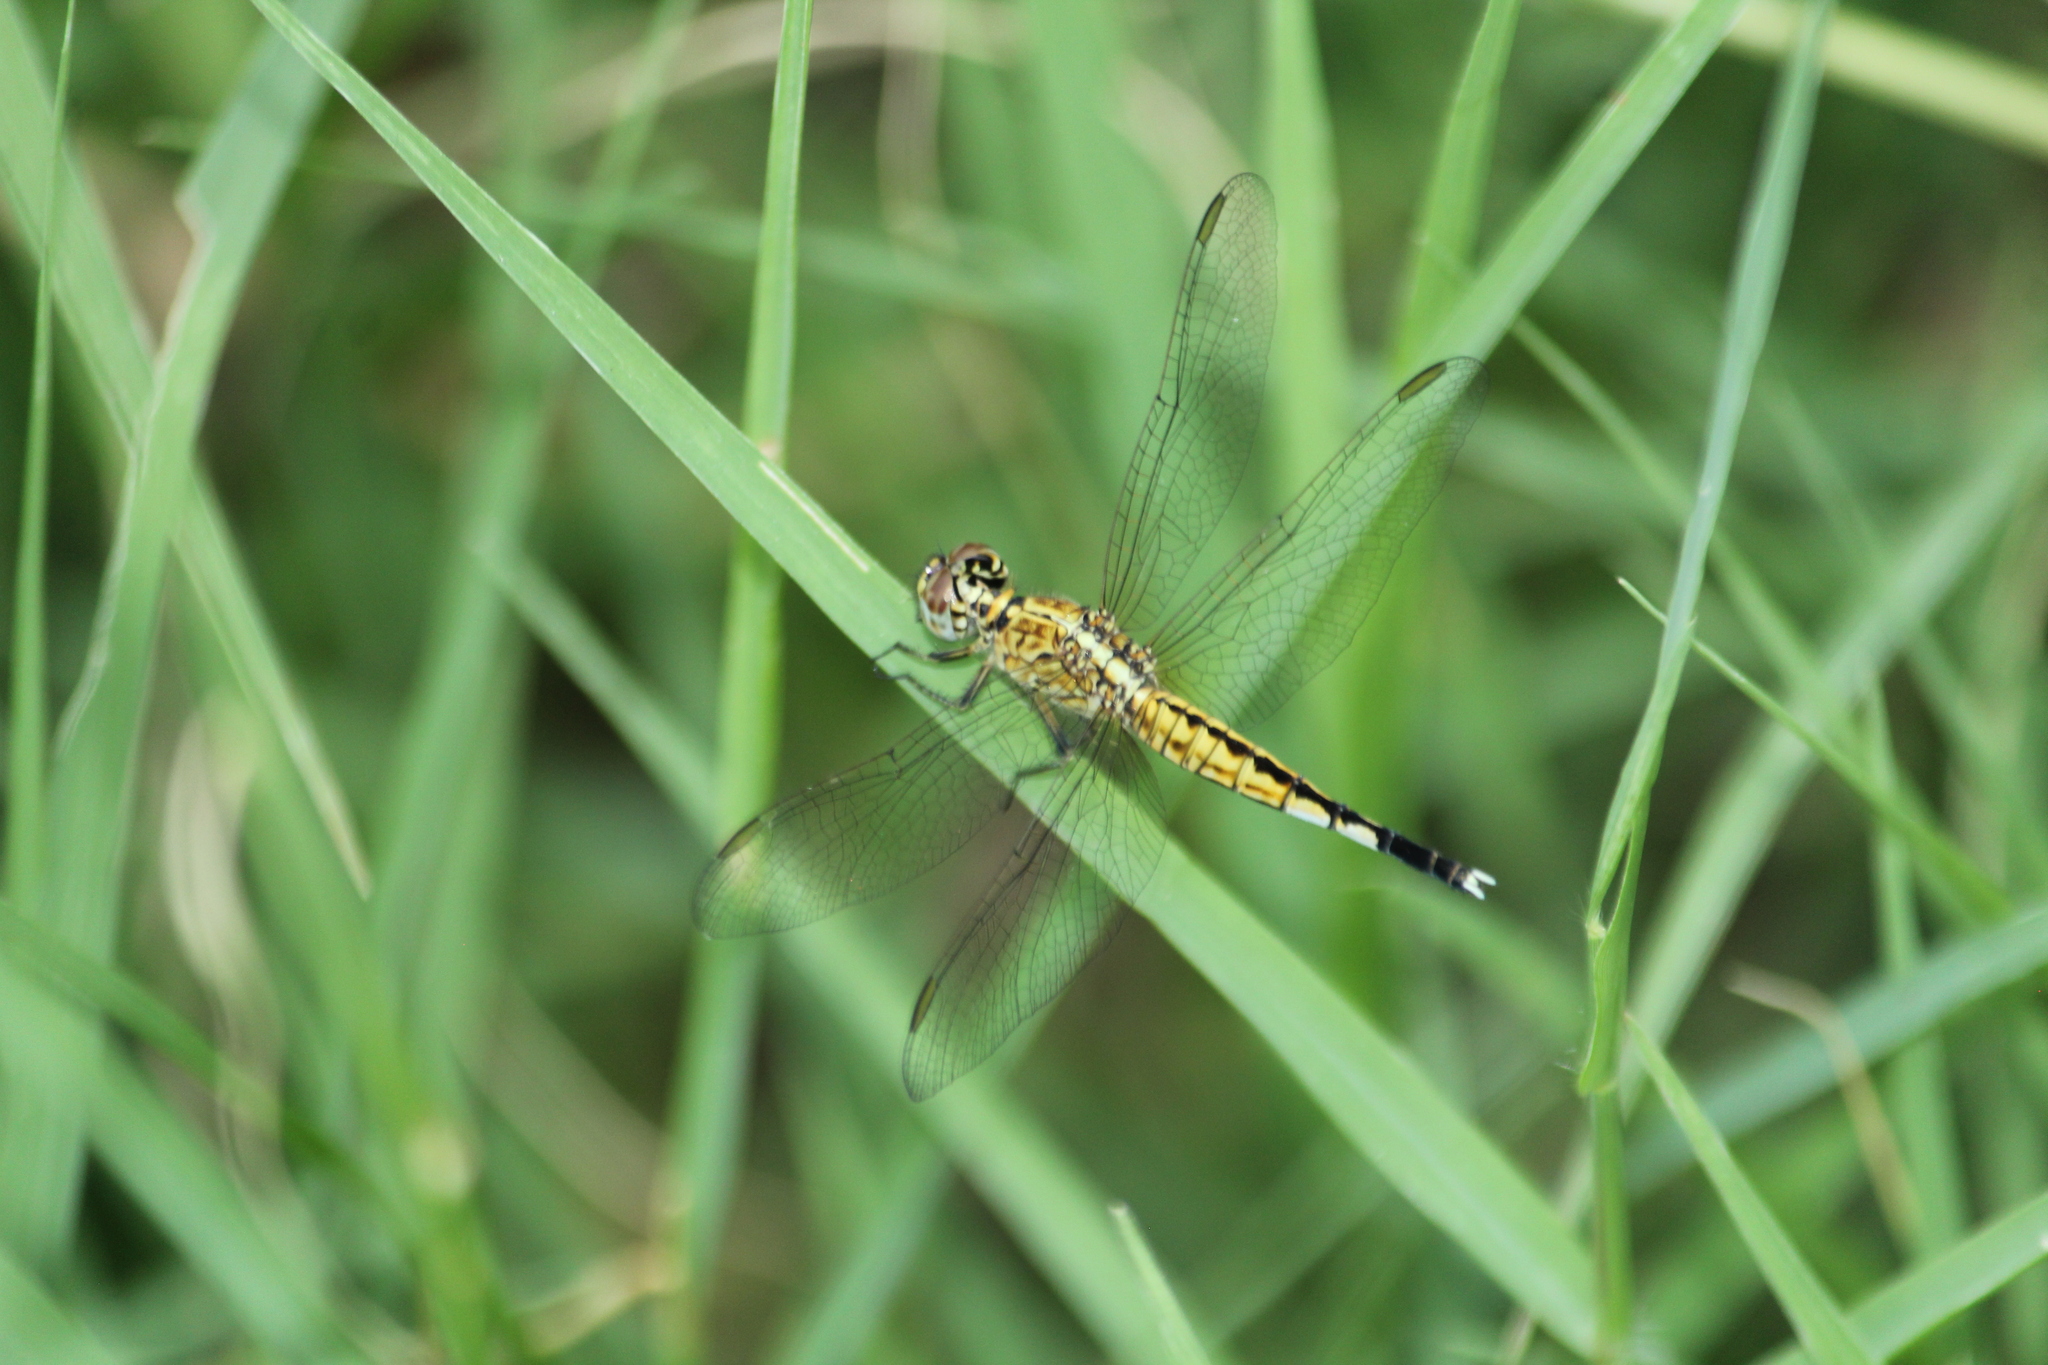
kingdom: Animalia
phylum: Arthropoda
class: Insecta
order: Odonata
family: Libellulidae
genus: Acisoma
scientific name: Acisoma panorpoides
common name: Asian pintail
